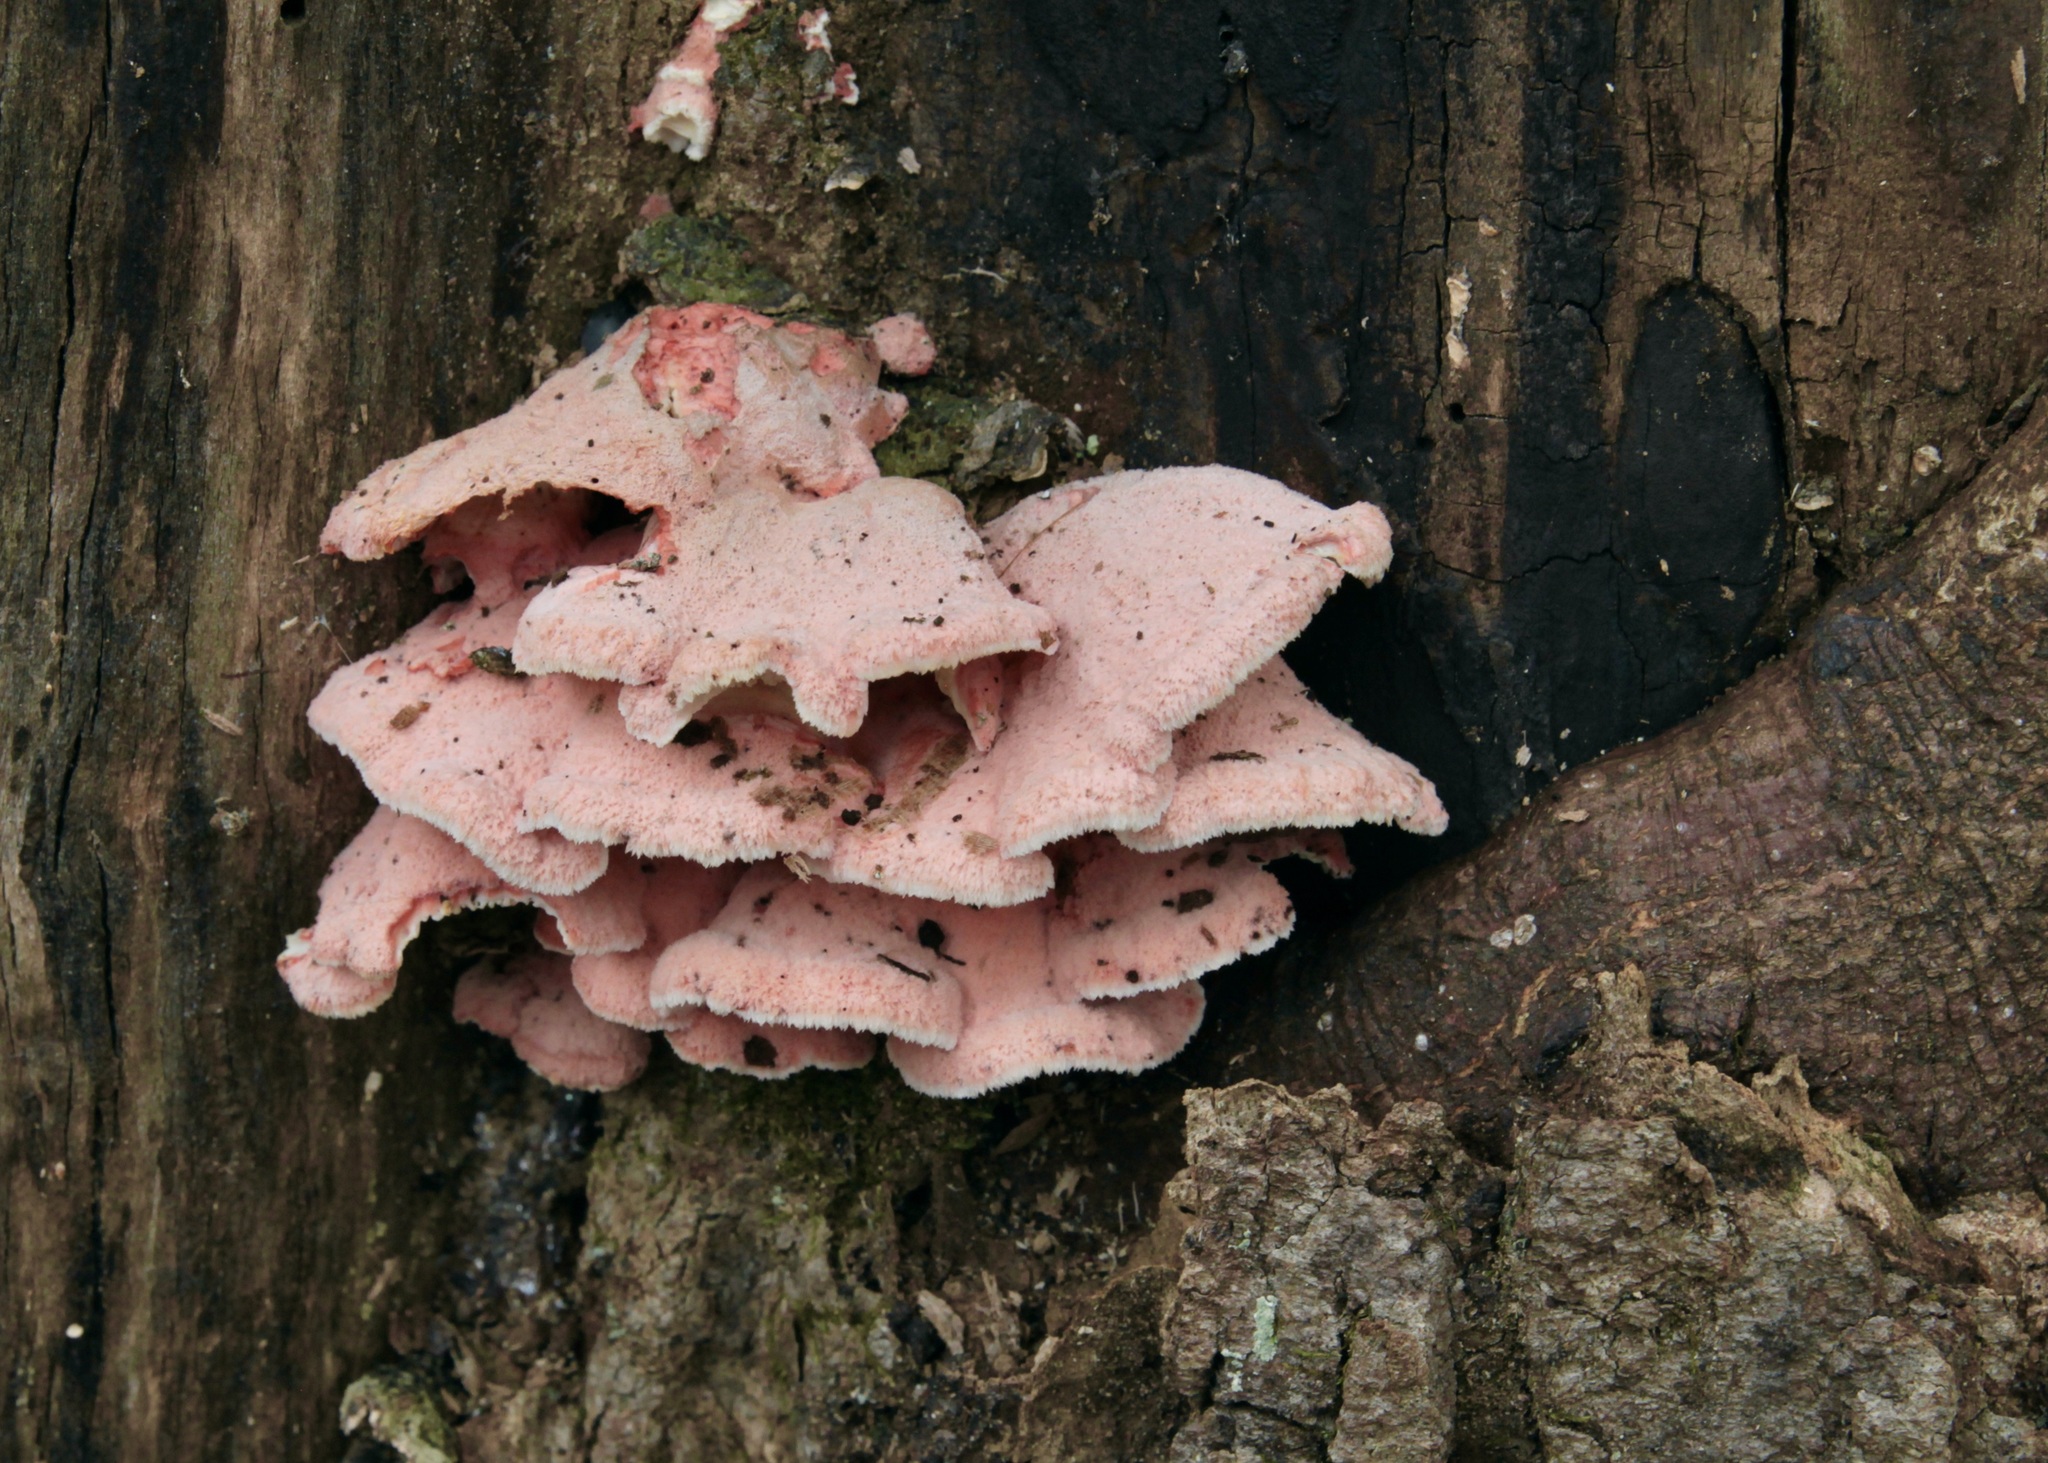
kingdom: Fungi
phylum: Basidiomycota
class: Agaricomycetes
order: Polyporales
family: Irpicaceae
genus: Byssomerulius
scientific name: Byssomerulius incarnatus
